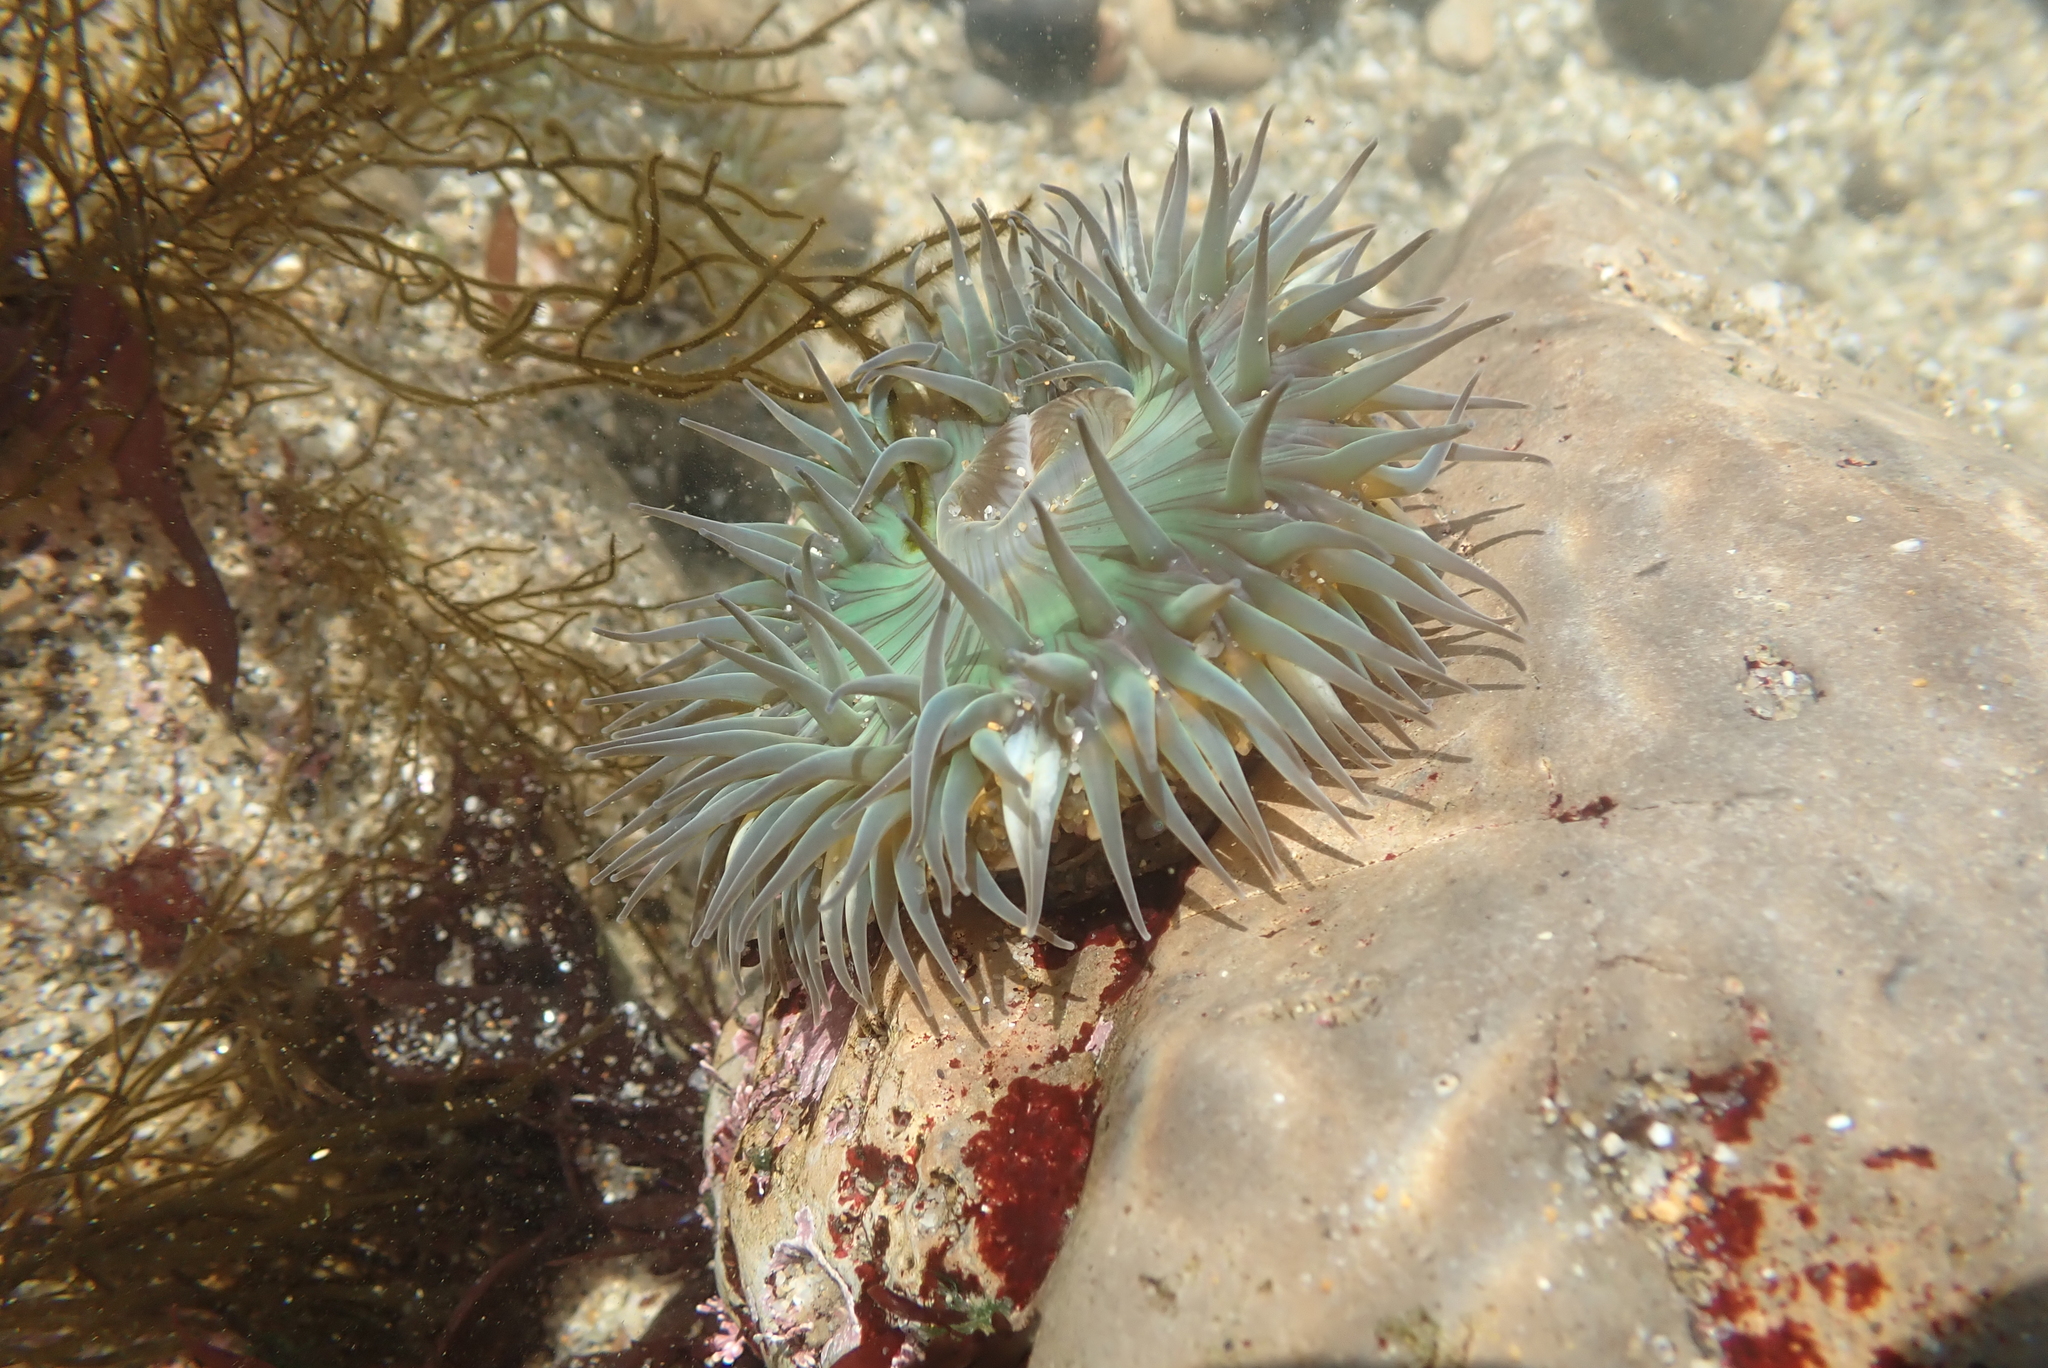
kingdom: Animalia
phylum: Cnidaria
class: Anthozoa
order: Actiniaria
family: Actiniidae
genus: Anthopleura
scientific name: Anthopleura sola
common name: Sun anemone
